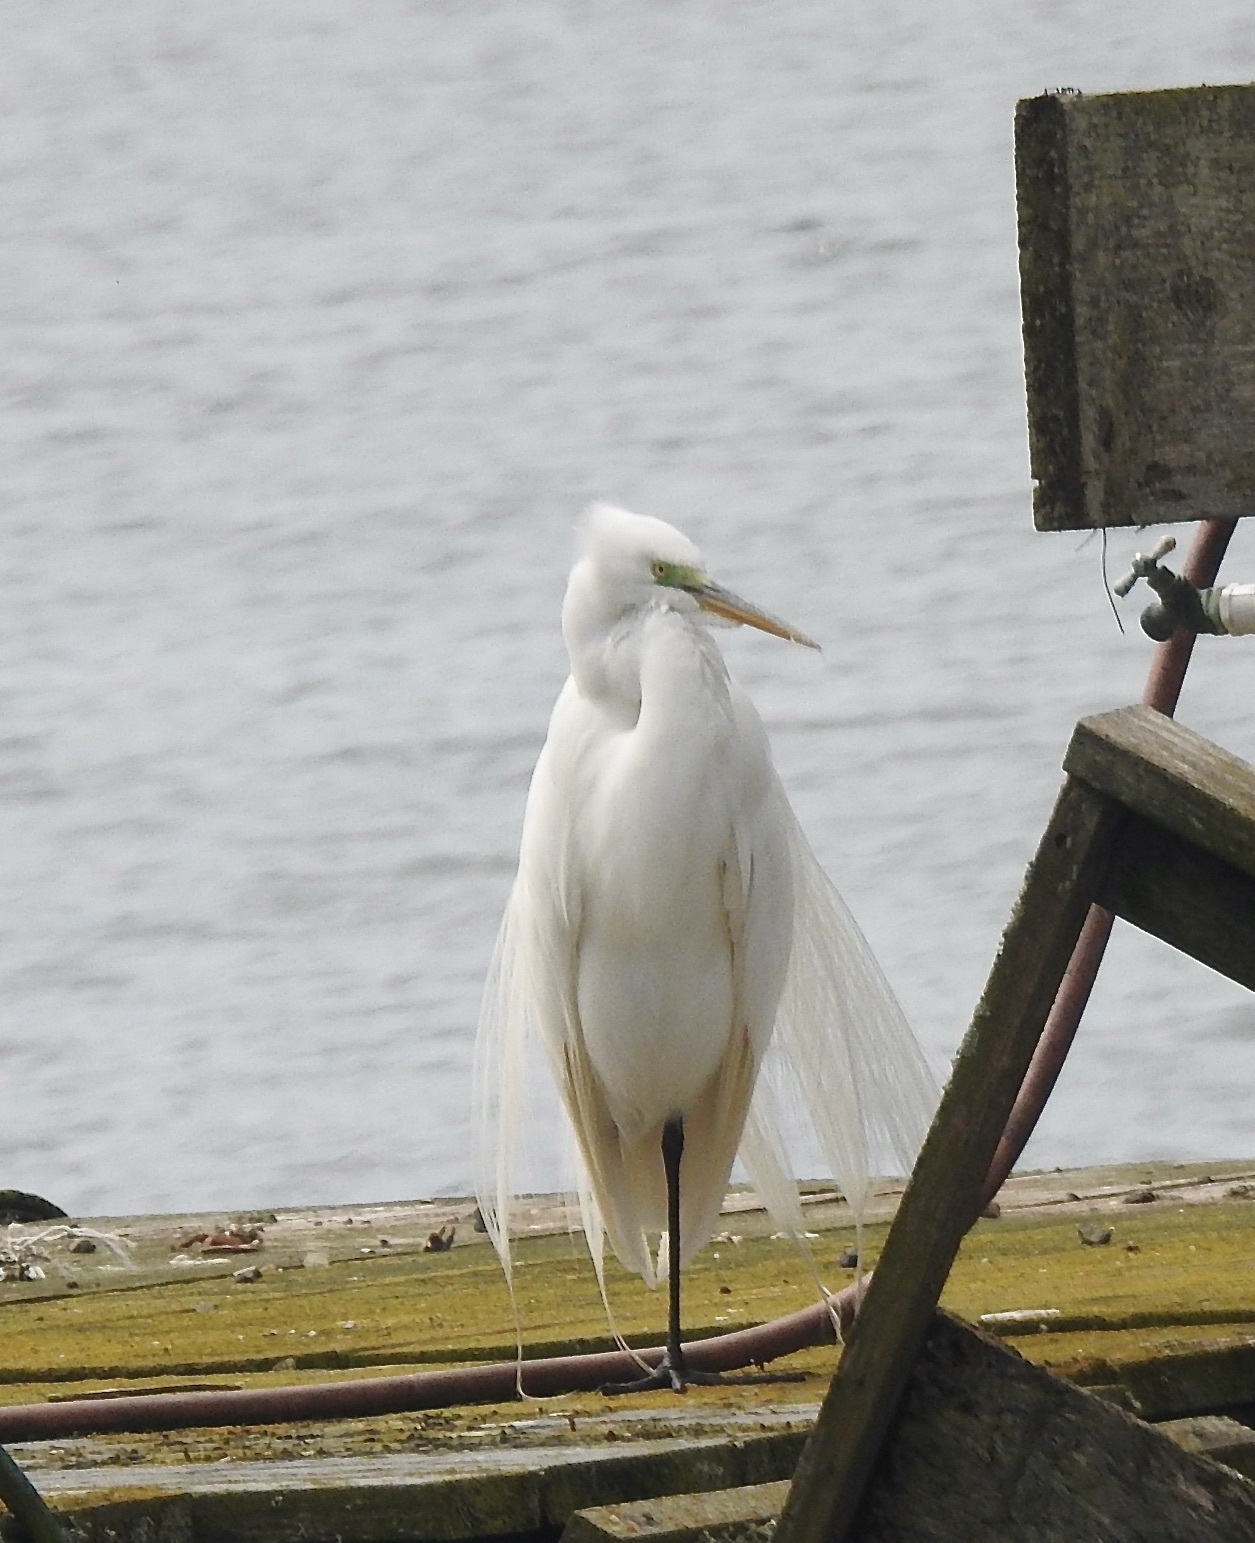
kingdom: Animalia
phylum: Chordata
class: Aves
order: Pelecaniformes
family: Ardeidae
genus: Ardea
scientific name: Ardea alba
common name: Great egret
